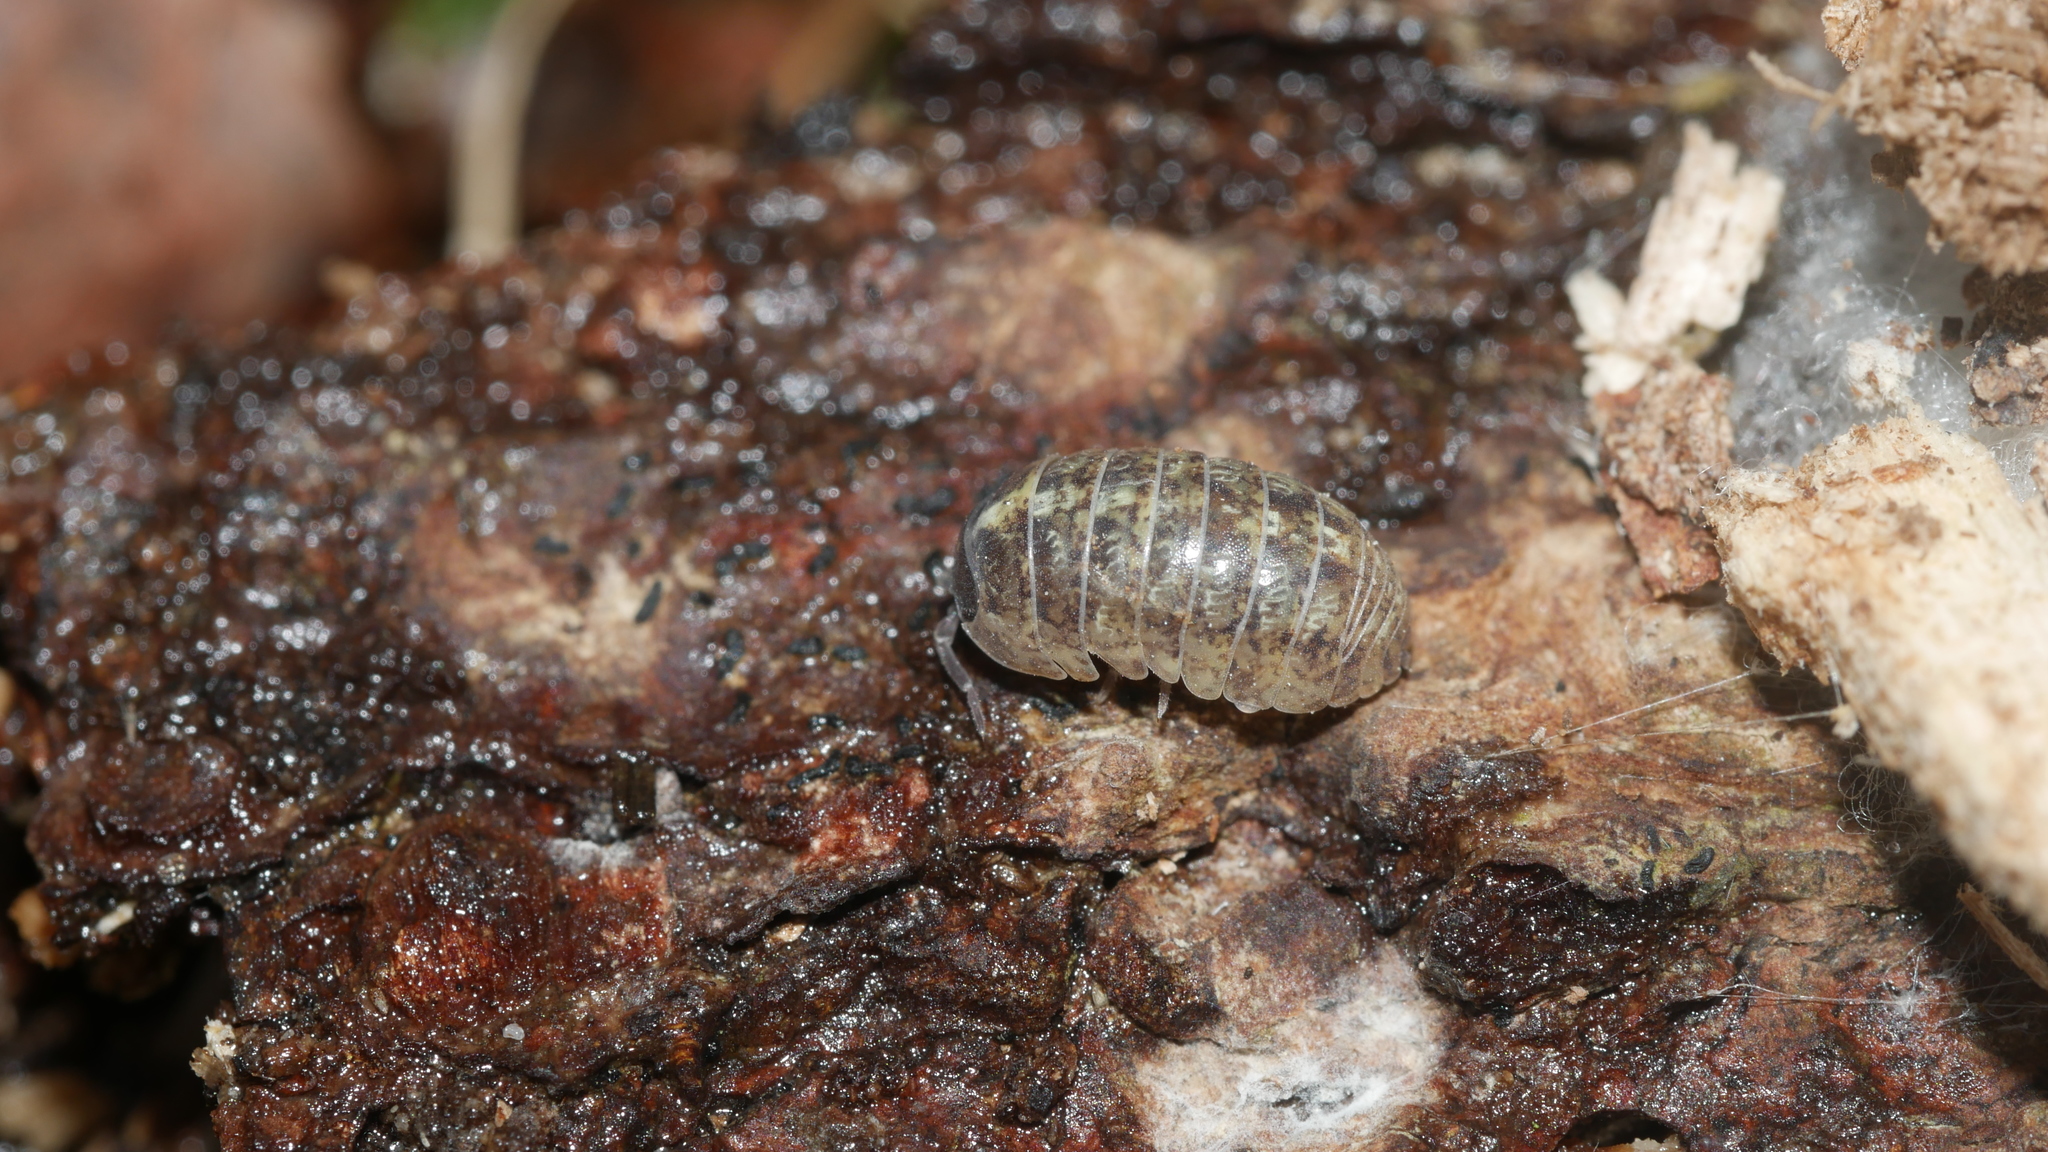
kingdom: Animalia
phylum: Arthropoda
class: Malacostraca
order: Isopoda
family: Armadillidiidae
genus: Armadillidium
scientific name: Armadillidium vulgare
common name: Common pill woodlouse
